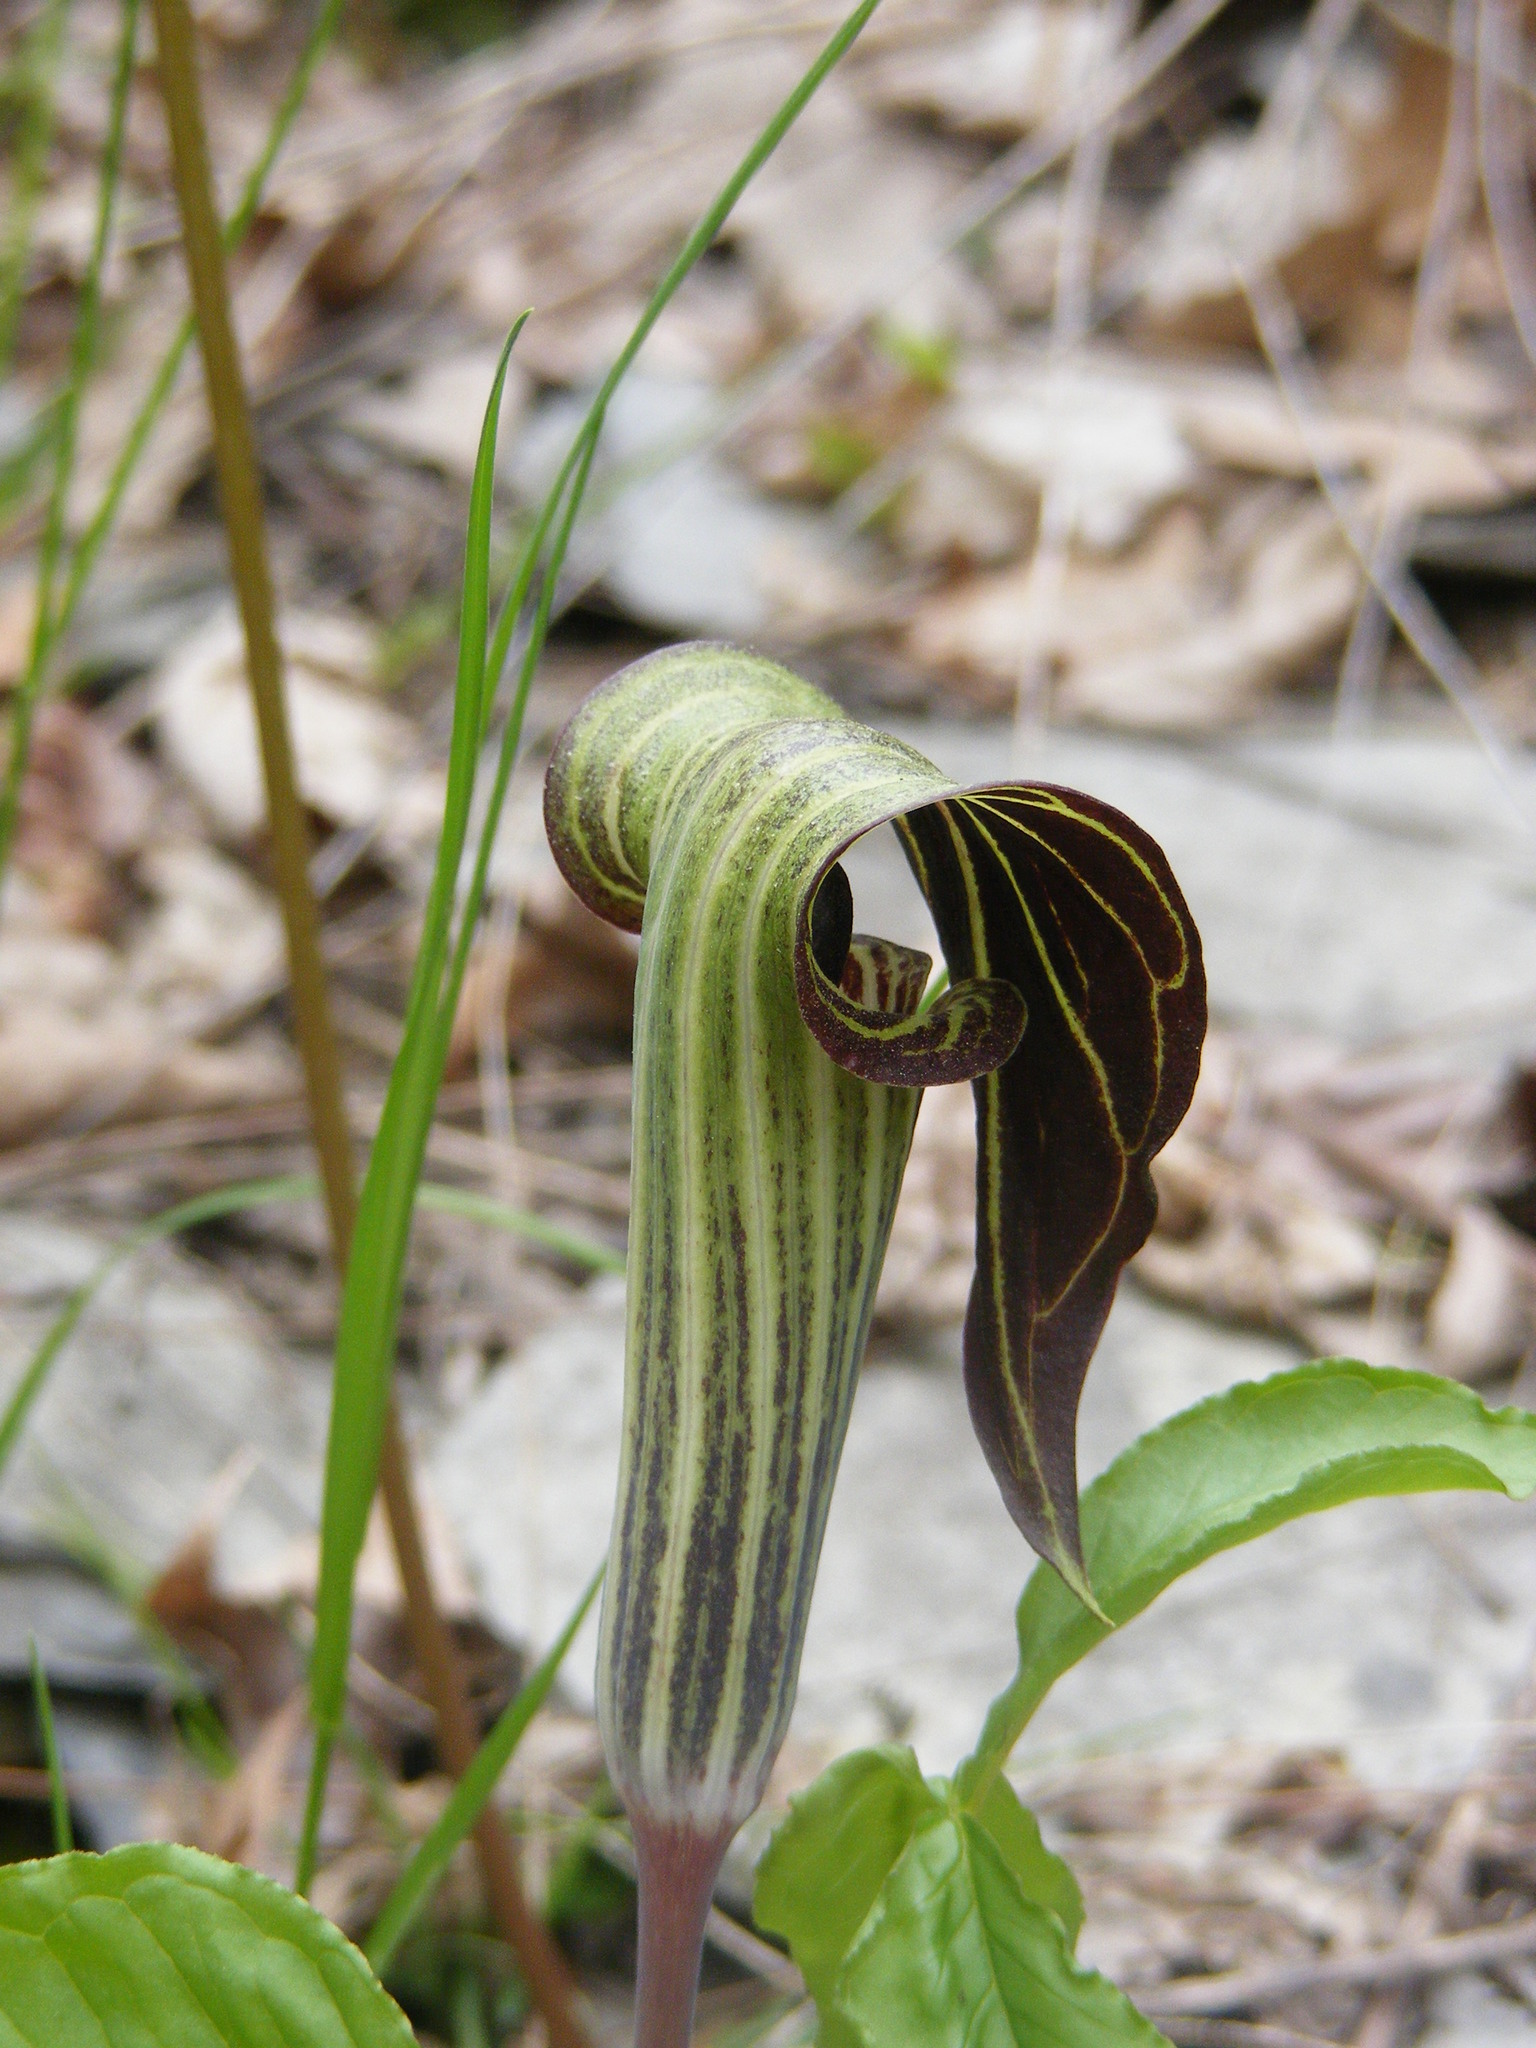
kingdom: Plantae
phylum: Tracheophyta
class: Liliopsida
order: Alismatales
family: Araceae
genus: Arisaema
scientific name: Arisaema triphyllum
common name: Jack-in-the-pulpit
